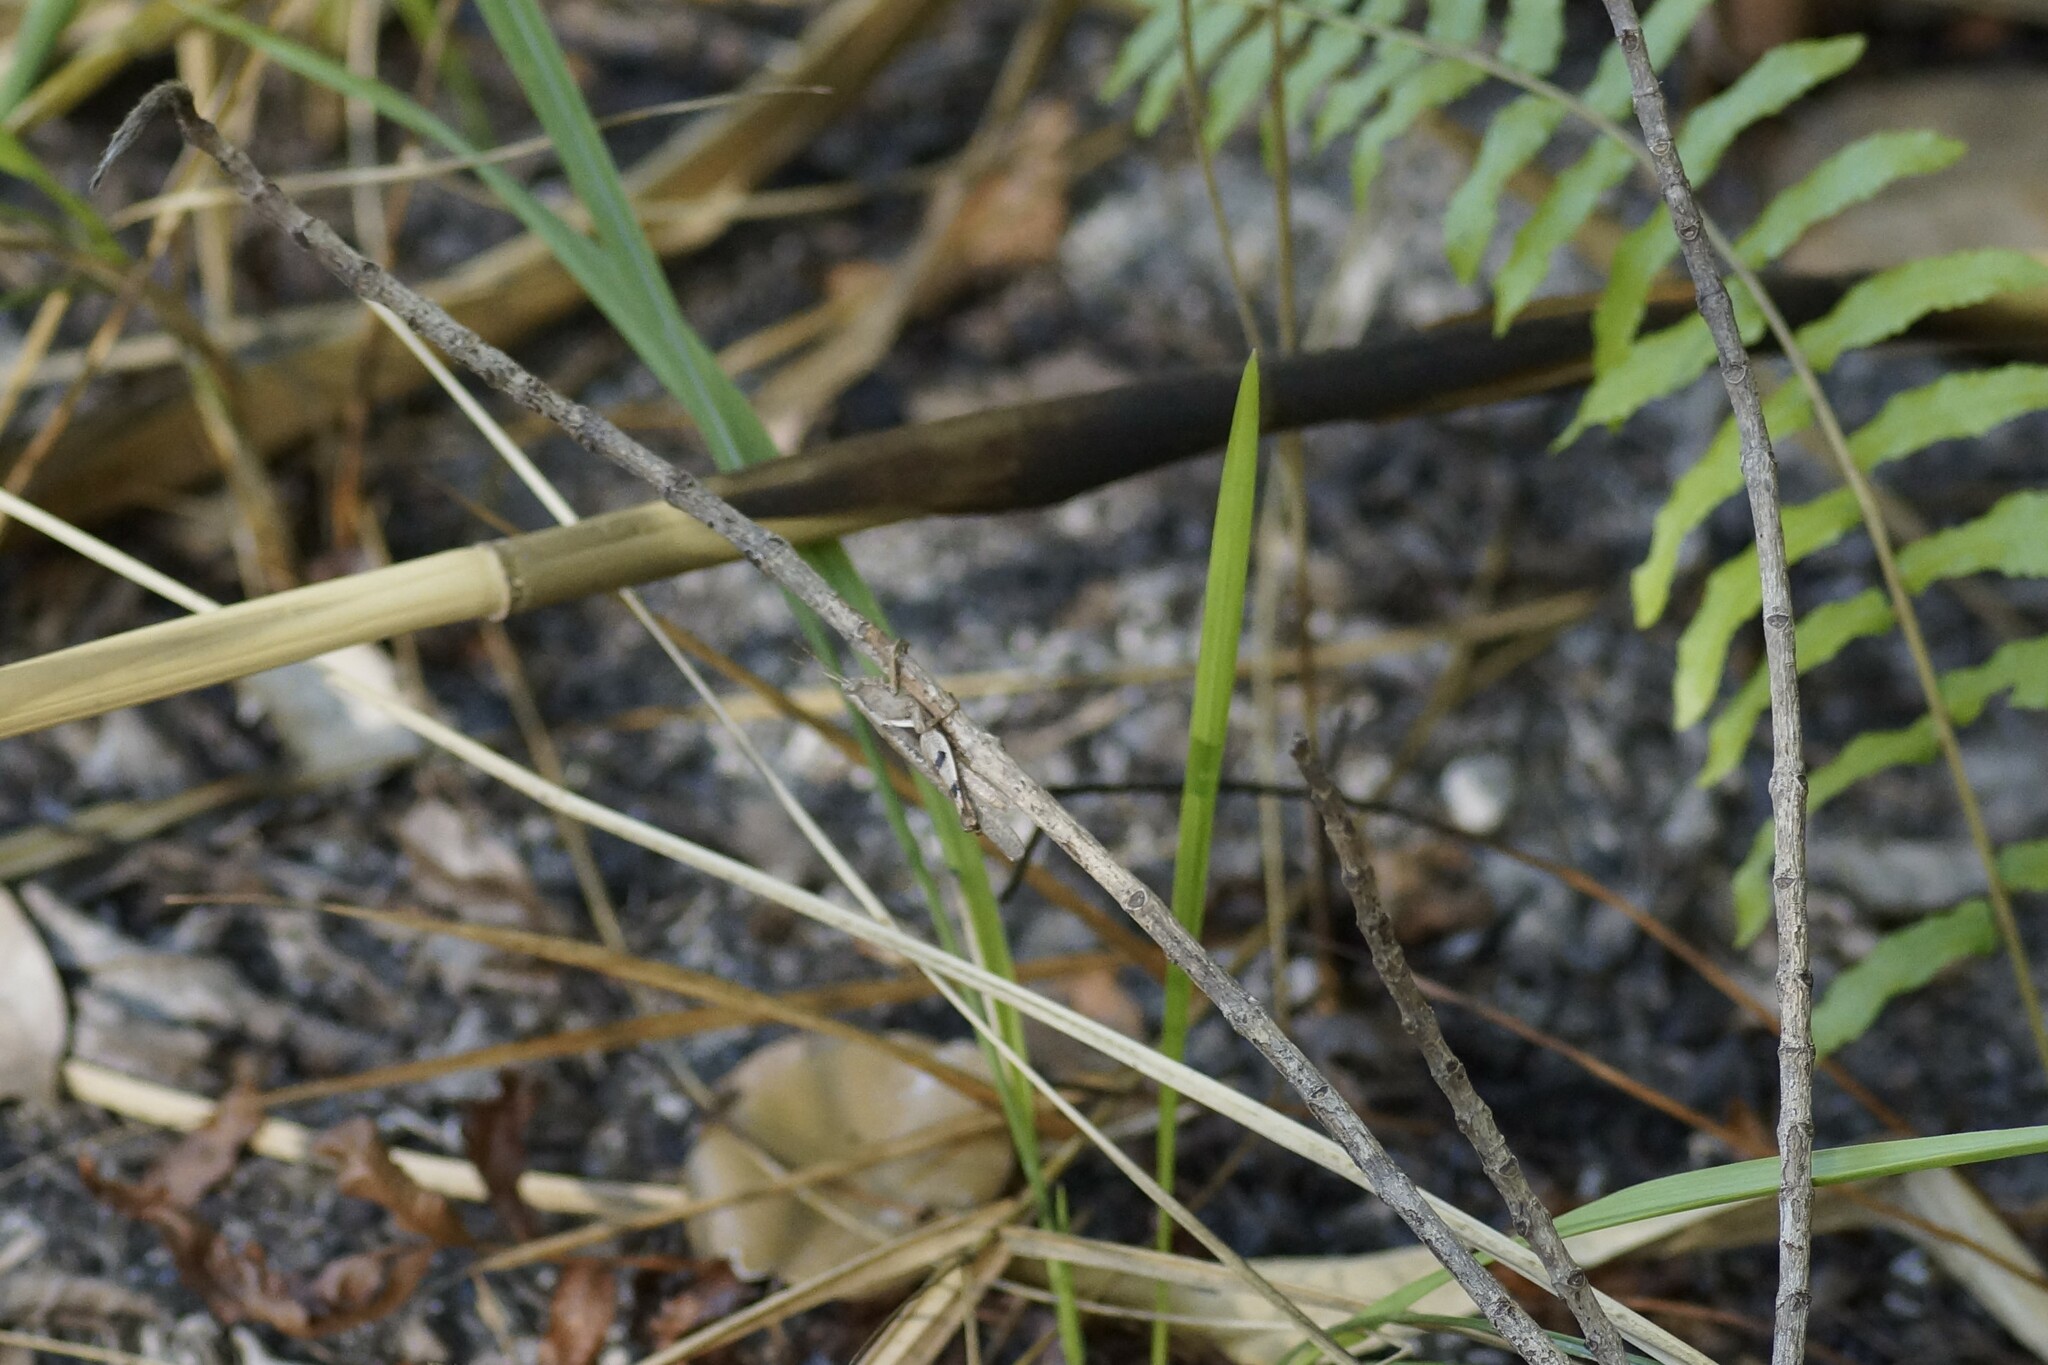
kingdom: Animalia
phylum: Arthropoda
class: Insecta
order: Orthoptera
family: Acrididae
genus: Stenocatantops
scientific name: Stenocatantops angustifrons
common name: Common tropical sharptail
